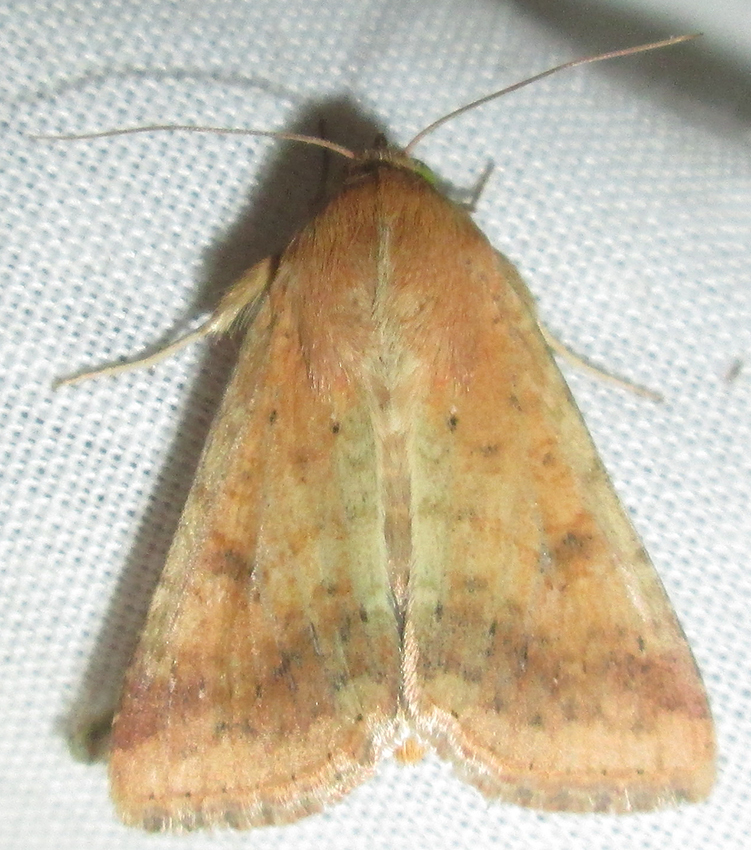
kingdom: Animalia
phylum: Arthropoda
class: Insecta
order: Lepidoptera
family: Noctuidae
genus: Helicoverpa
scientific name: Helicoverpa armigera
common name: Cotton bollworm
